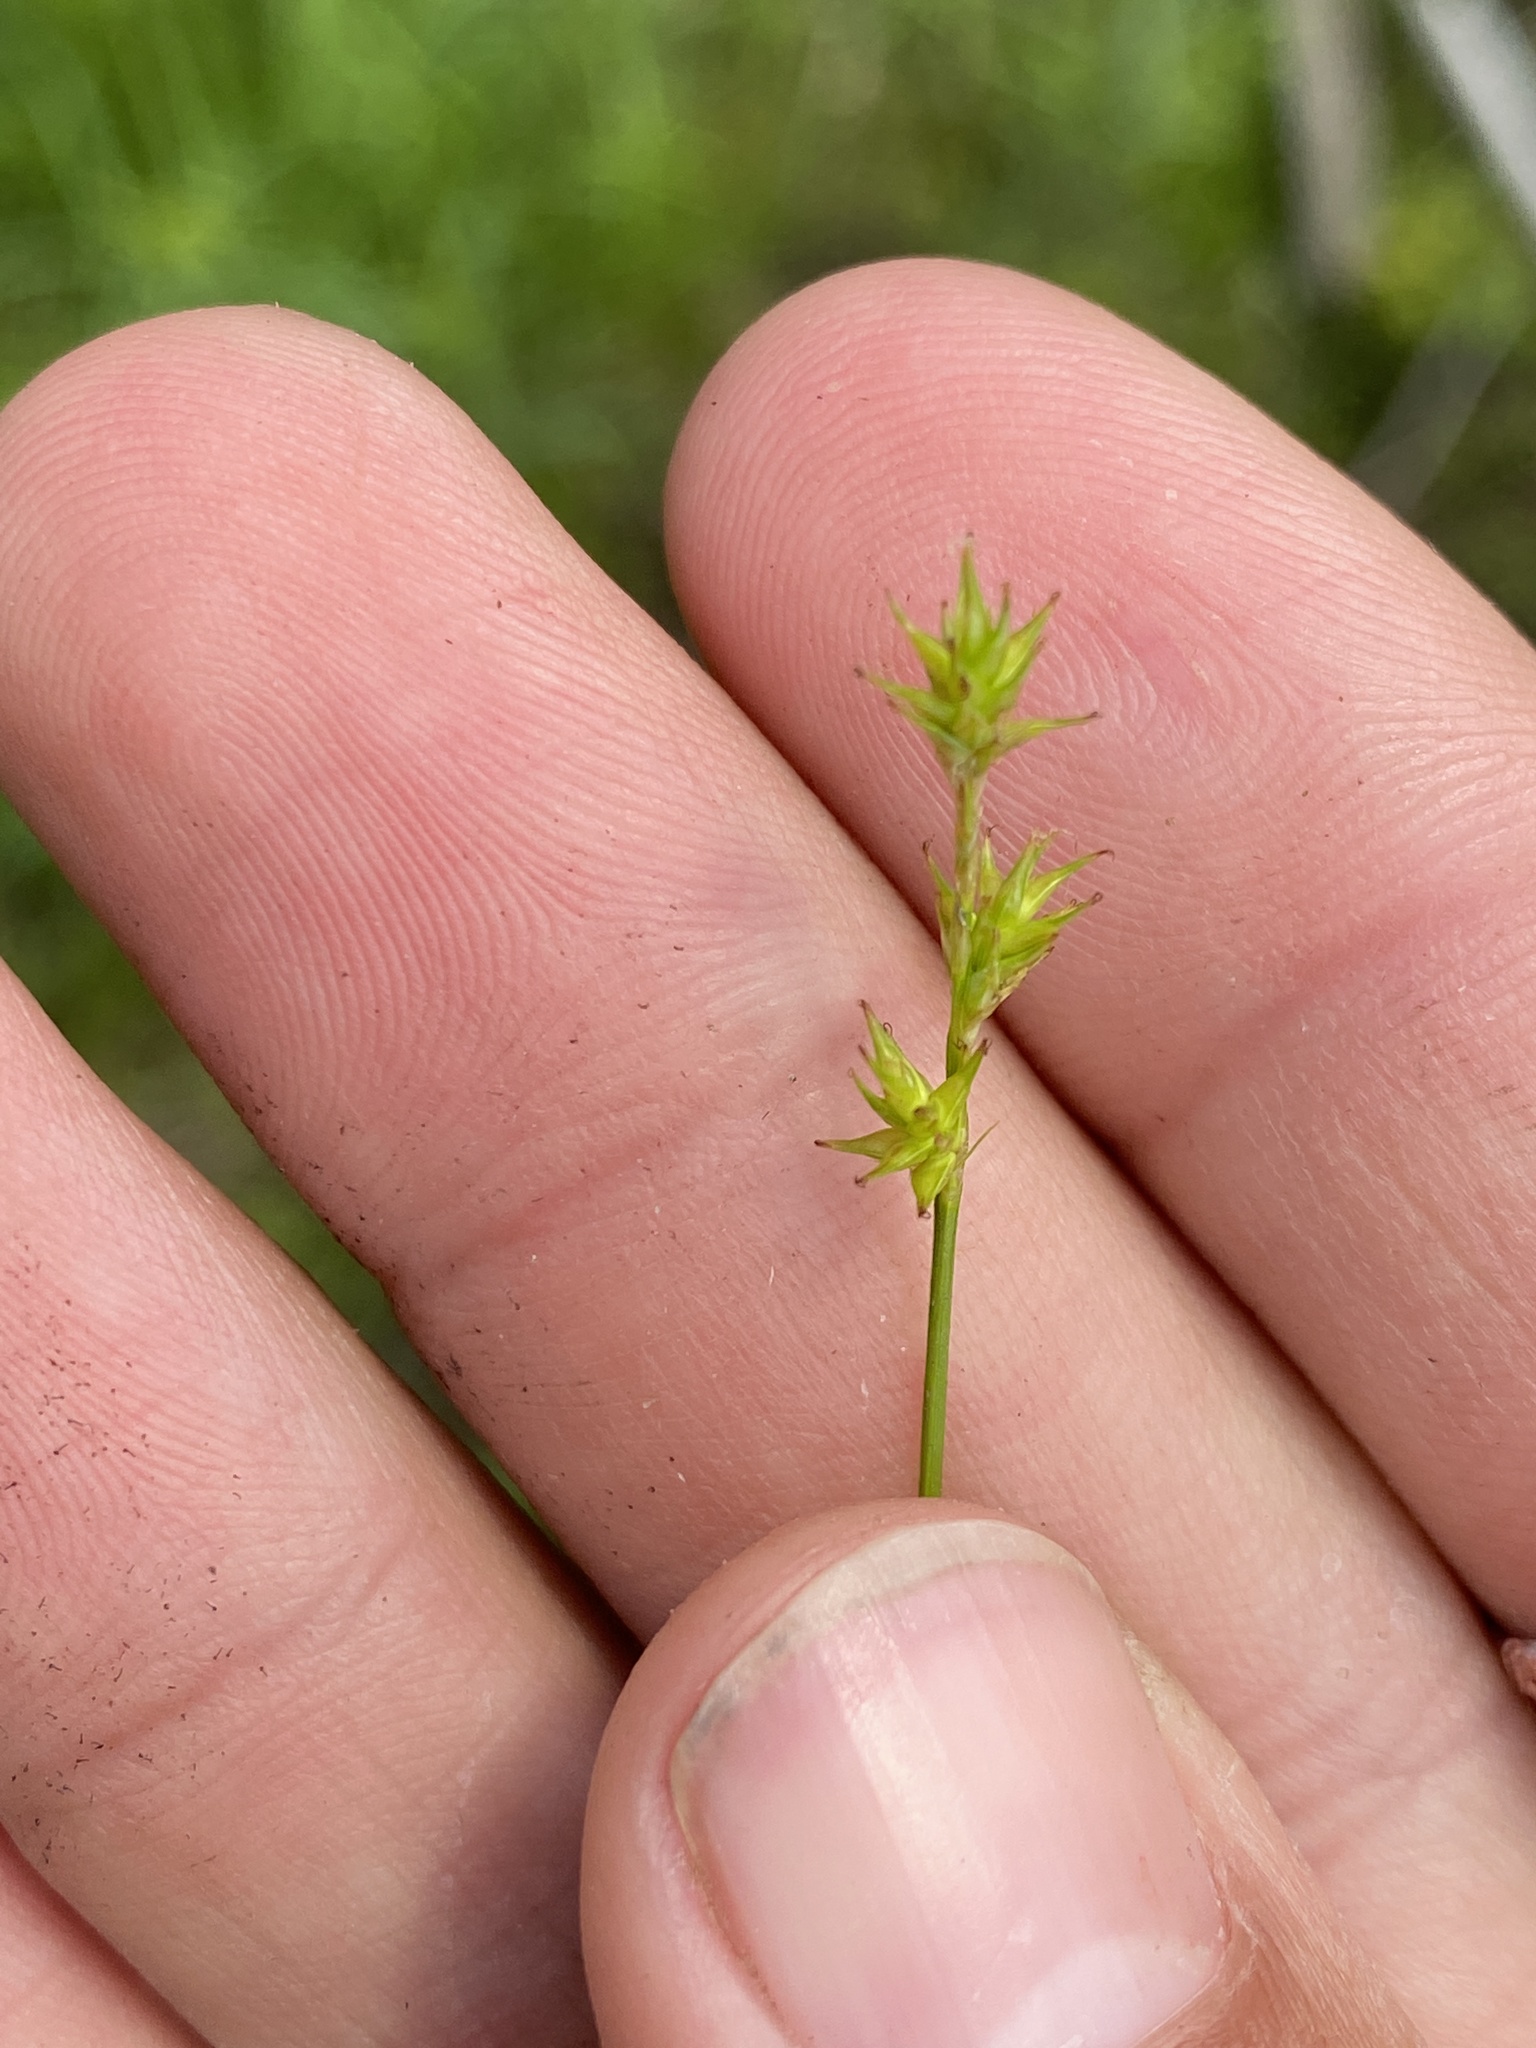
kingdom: Plantae
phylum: Tracheophyta
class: Liliopsida
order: Poales
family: Cyperaceae
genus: Carex
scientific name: Carex echinata
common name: Star sedge
